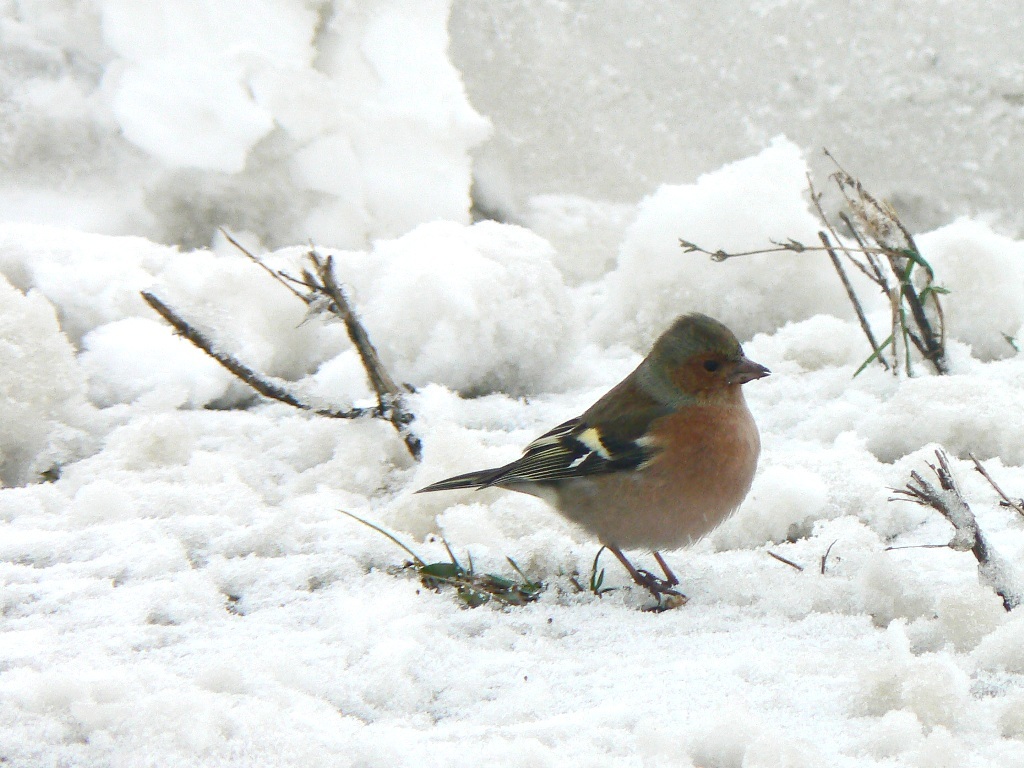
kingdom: Animalia
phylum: Chordata
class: Aves
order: Passeriformes
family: Fringillidae
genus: Fringilla
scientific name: Fringilla coelebs
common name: Common chaffinch
